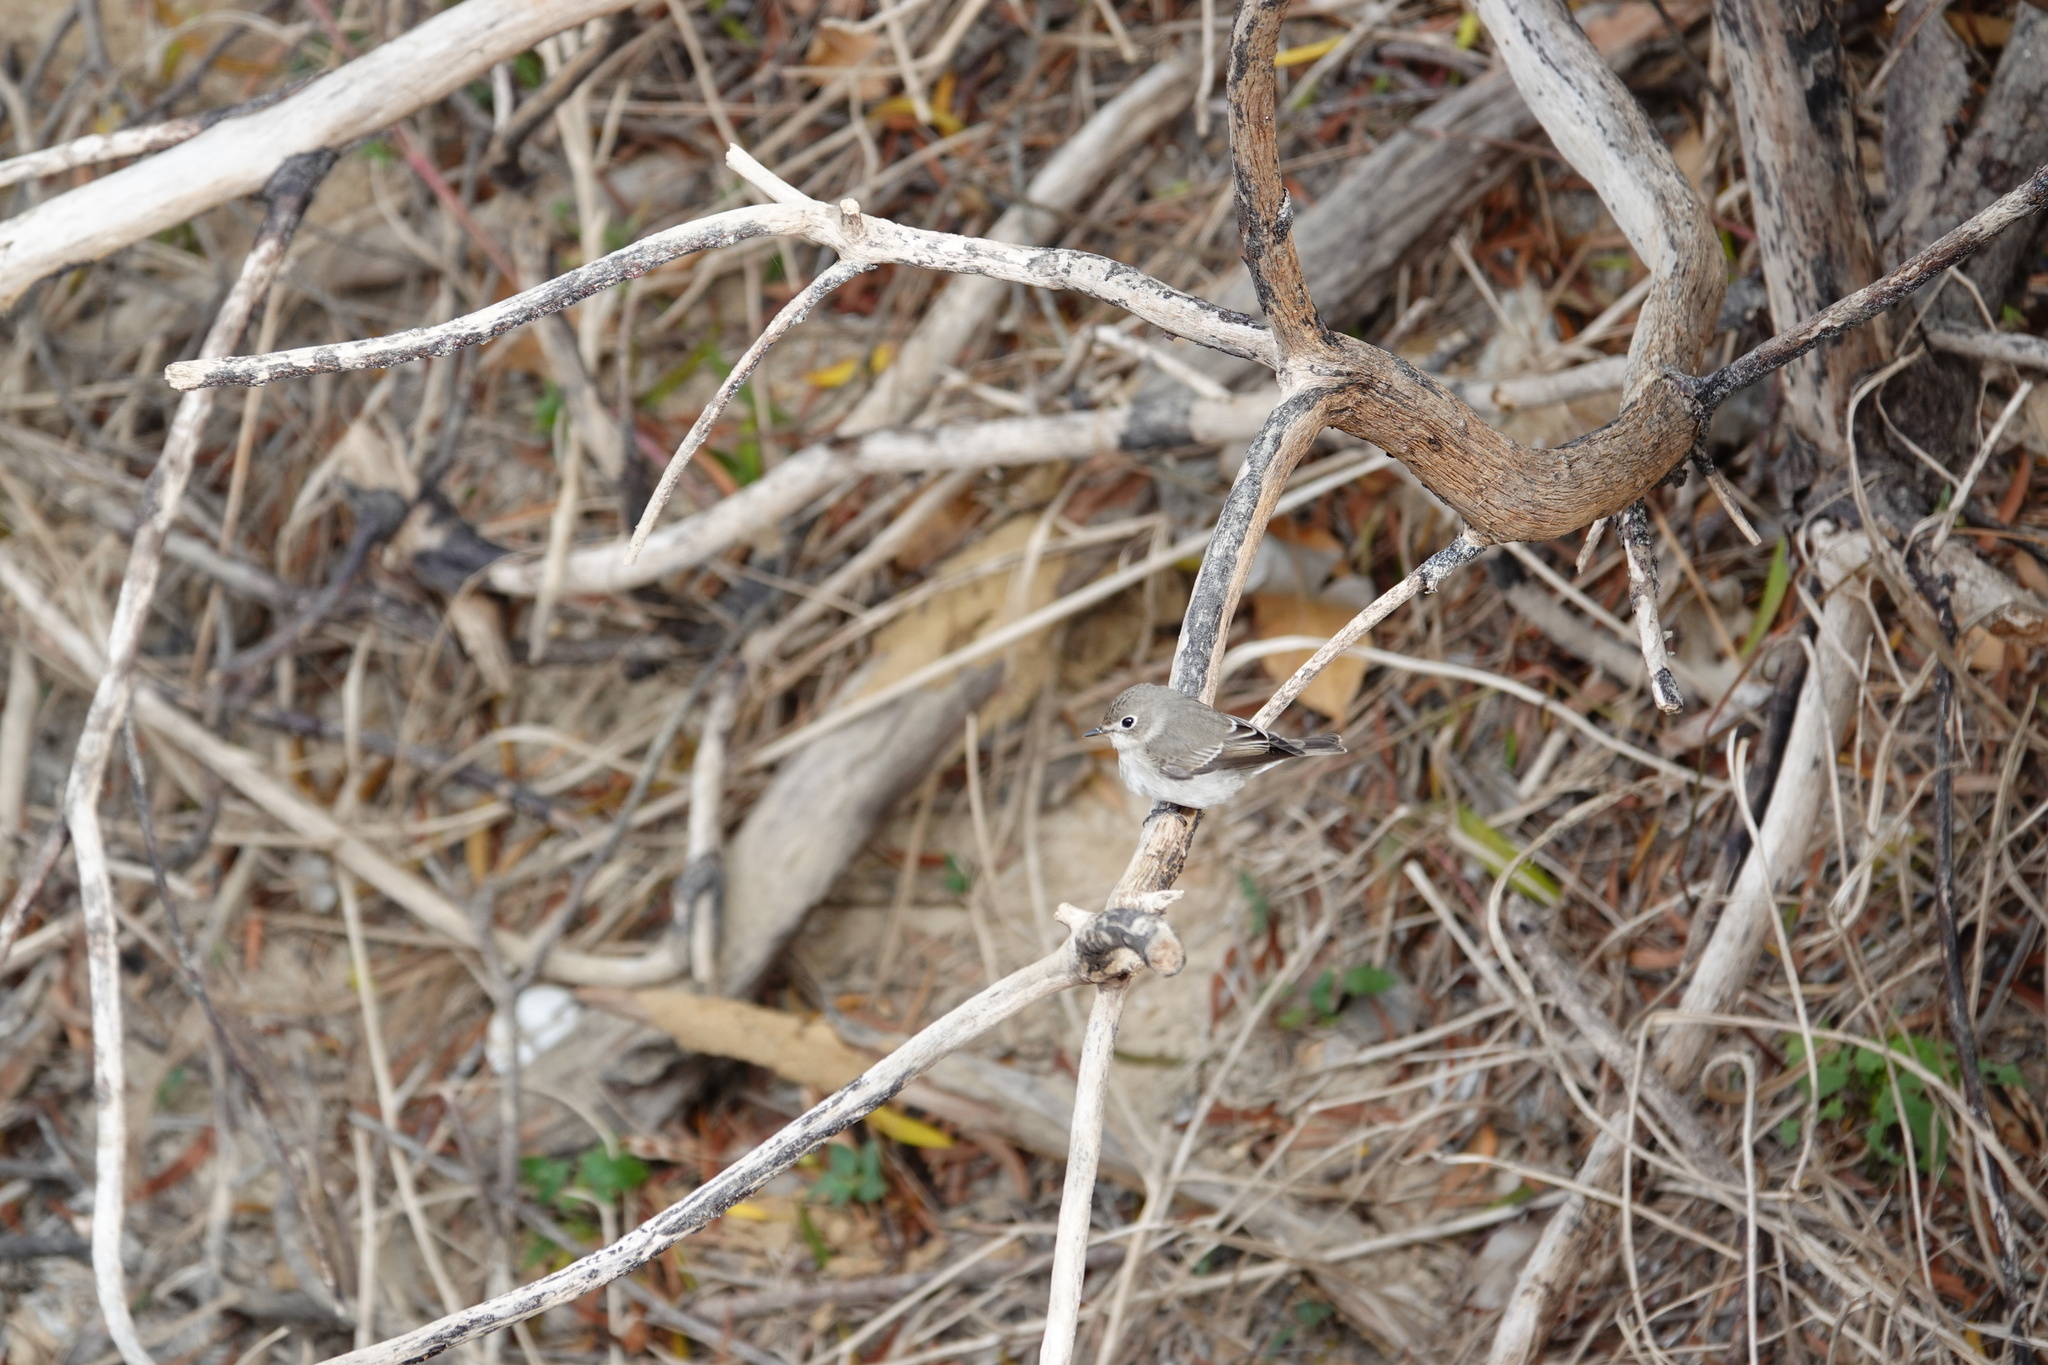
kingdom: Animalia
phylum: Chordata
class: Aves
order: Passeriformes
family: Muscicapidae
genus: Muscicapa
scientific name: Muscicapa latirostris
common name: Asian brown flycatcher
